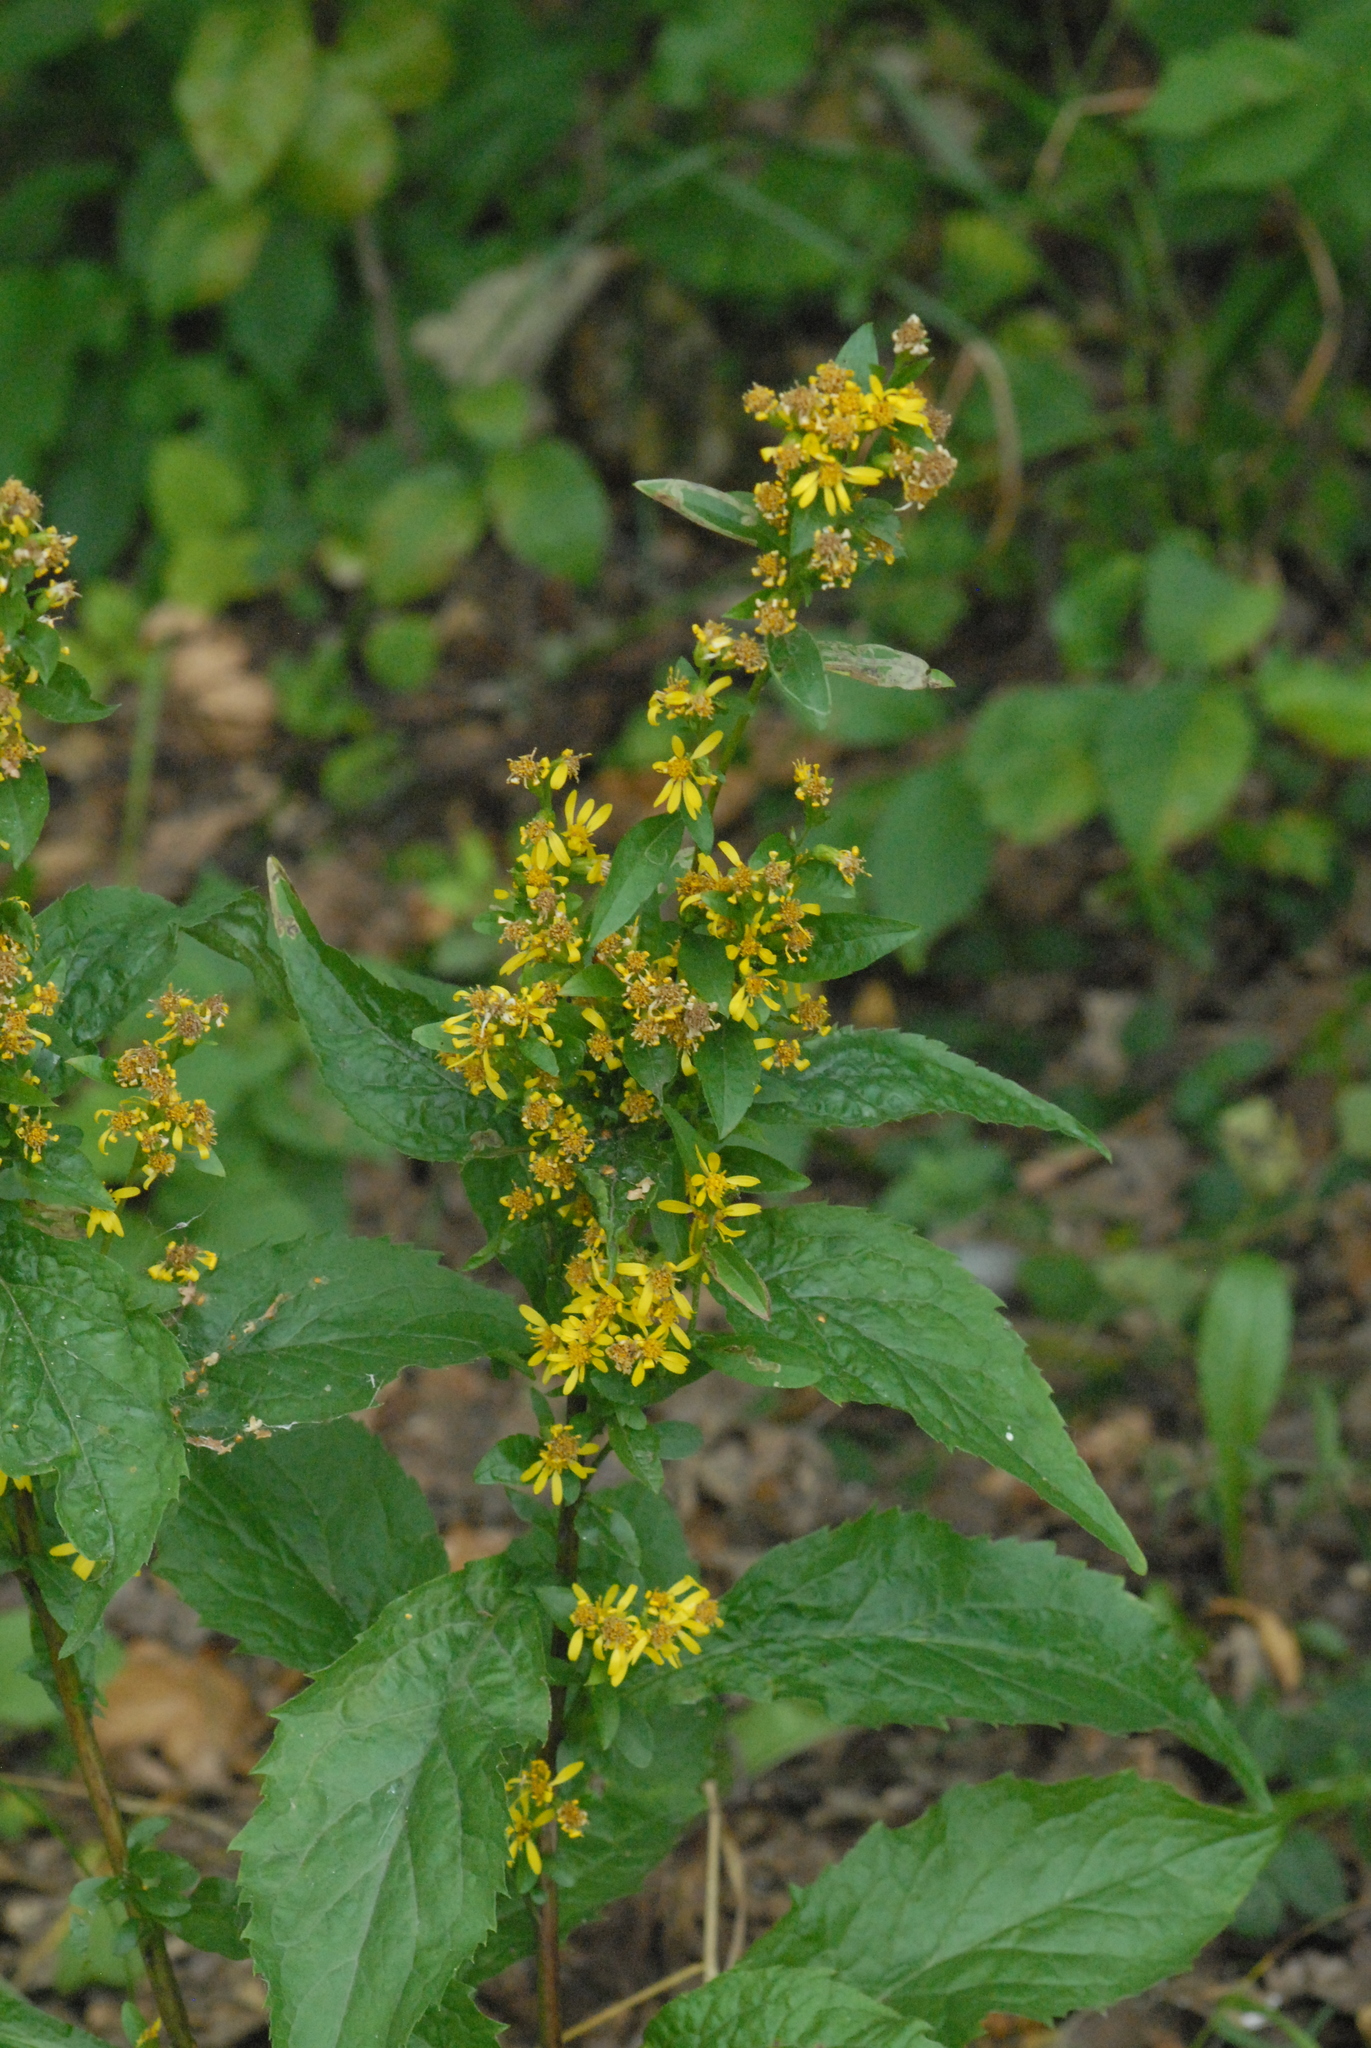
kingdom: Plantae
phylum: Tracheophyta
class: Magnoliopsida
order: Asterales
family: Asteraceae
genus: Solidago
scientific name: Solidago virgaurea
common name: Goldenrod
